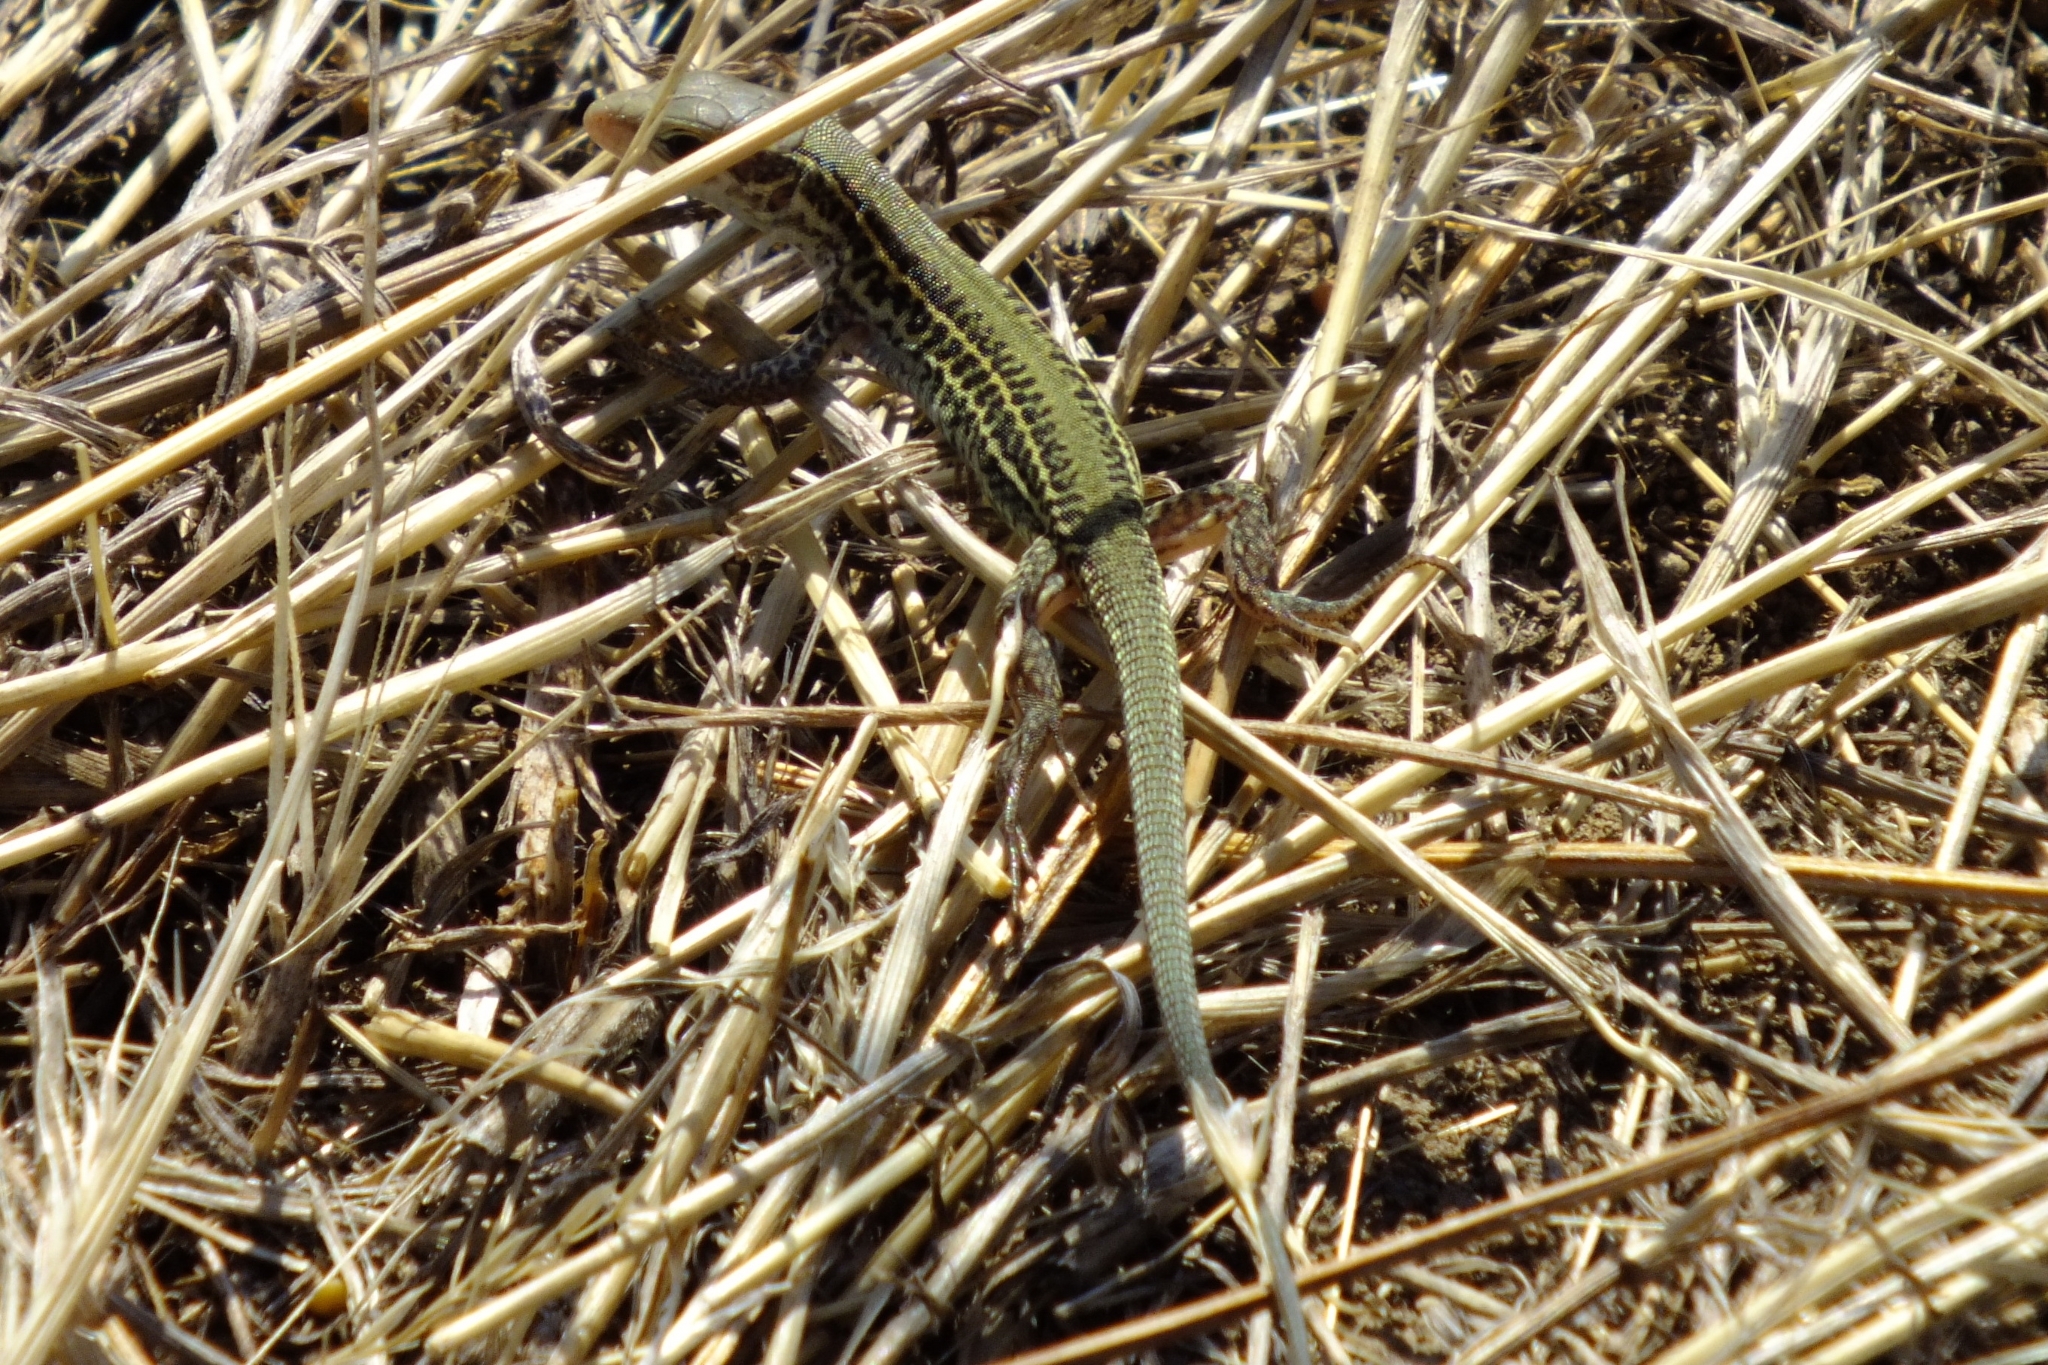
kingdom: Animalia
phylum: Chordata
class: Squamata
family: Lacertidae
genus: Podarcis
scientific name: Podarcis tauricus
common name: Balkan wall lizard
